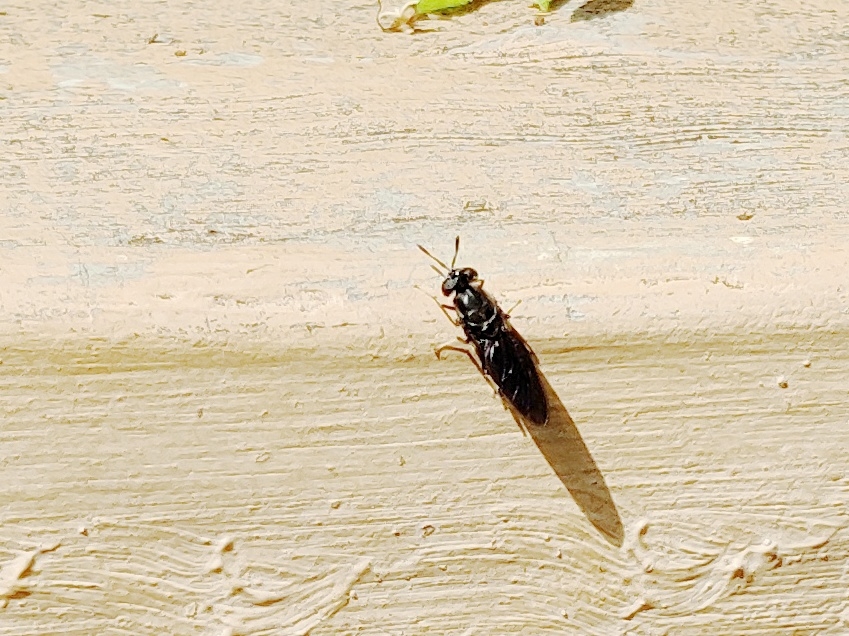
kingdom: Animalia
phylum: Arthropoda
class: Insecta
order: Diptera
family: Stratiomyidae
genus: Hermetia
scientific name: Hermetia illucens
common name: Black soldier fly
